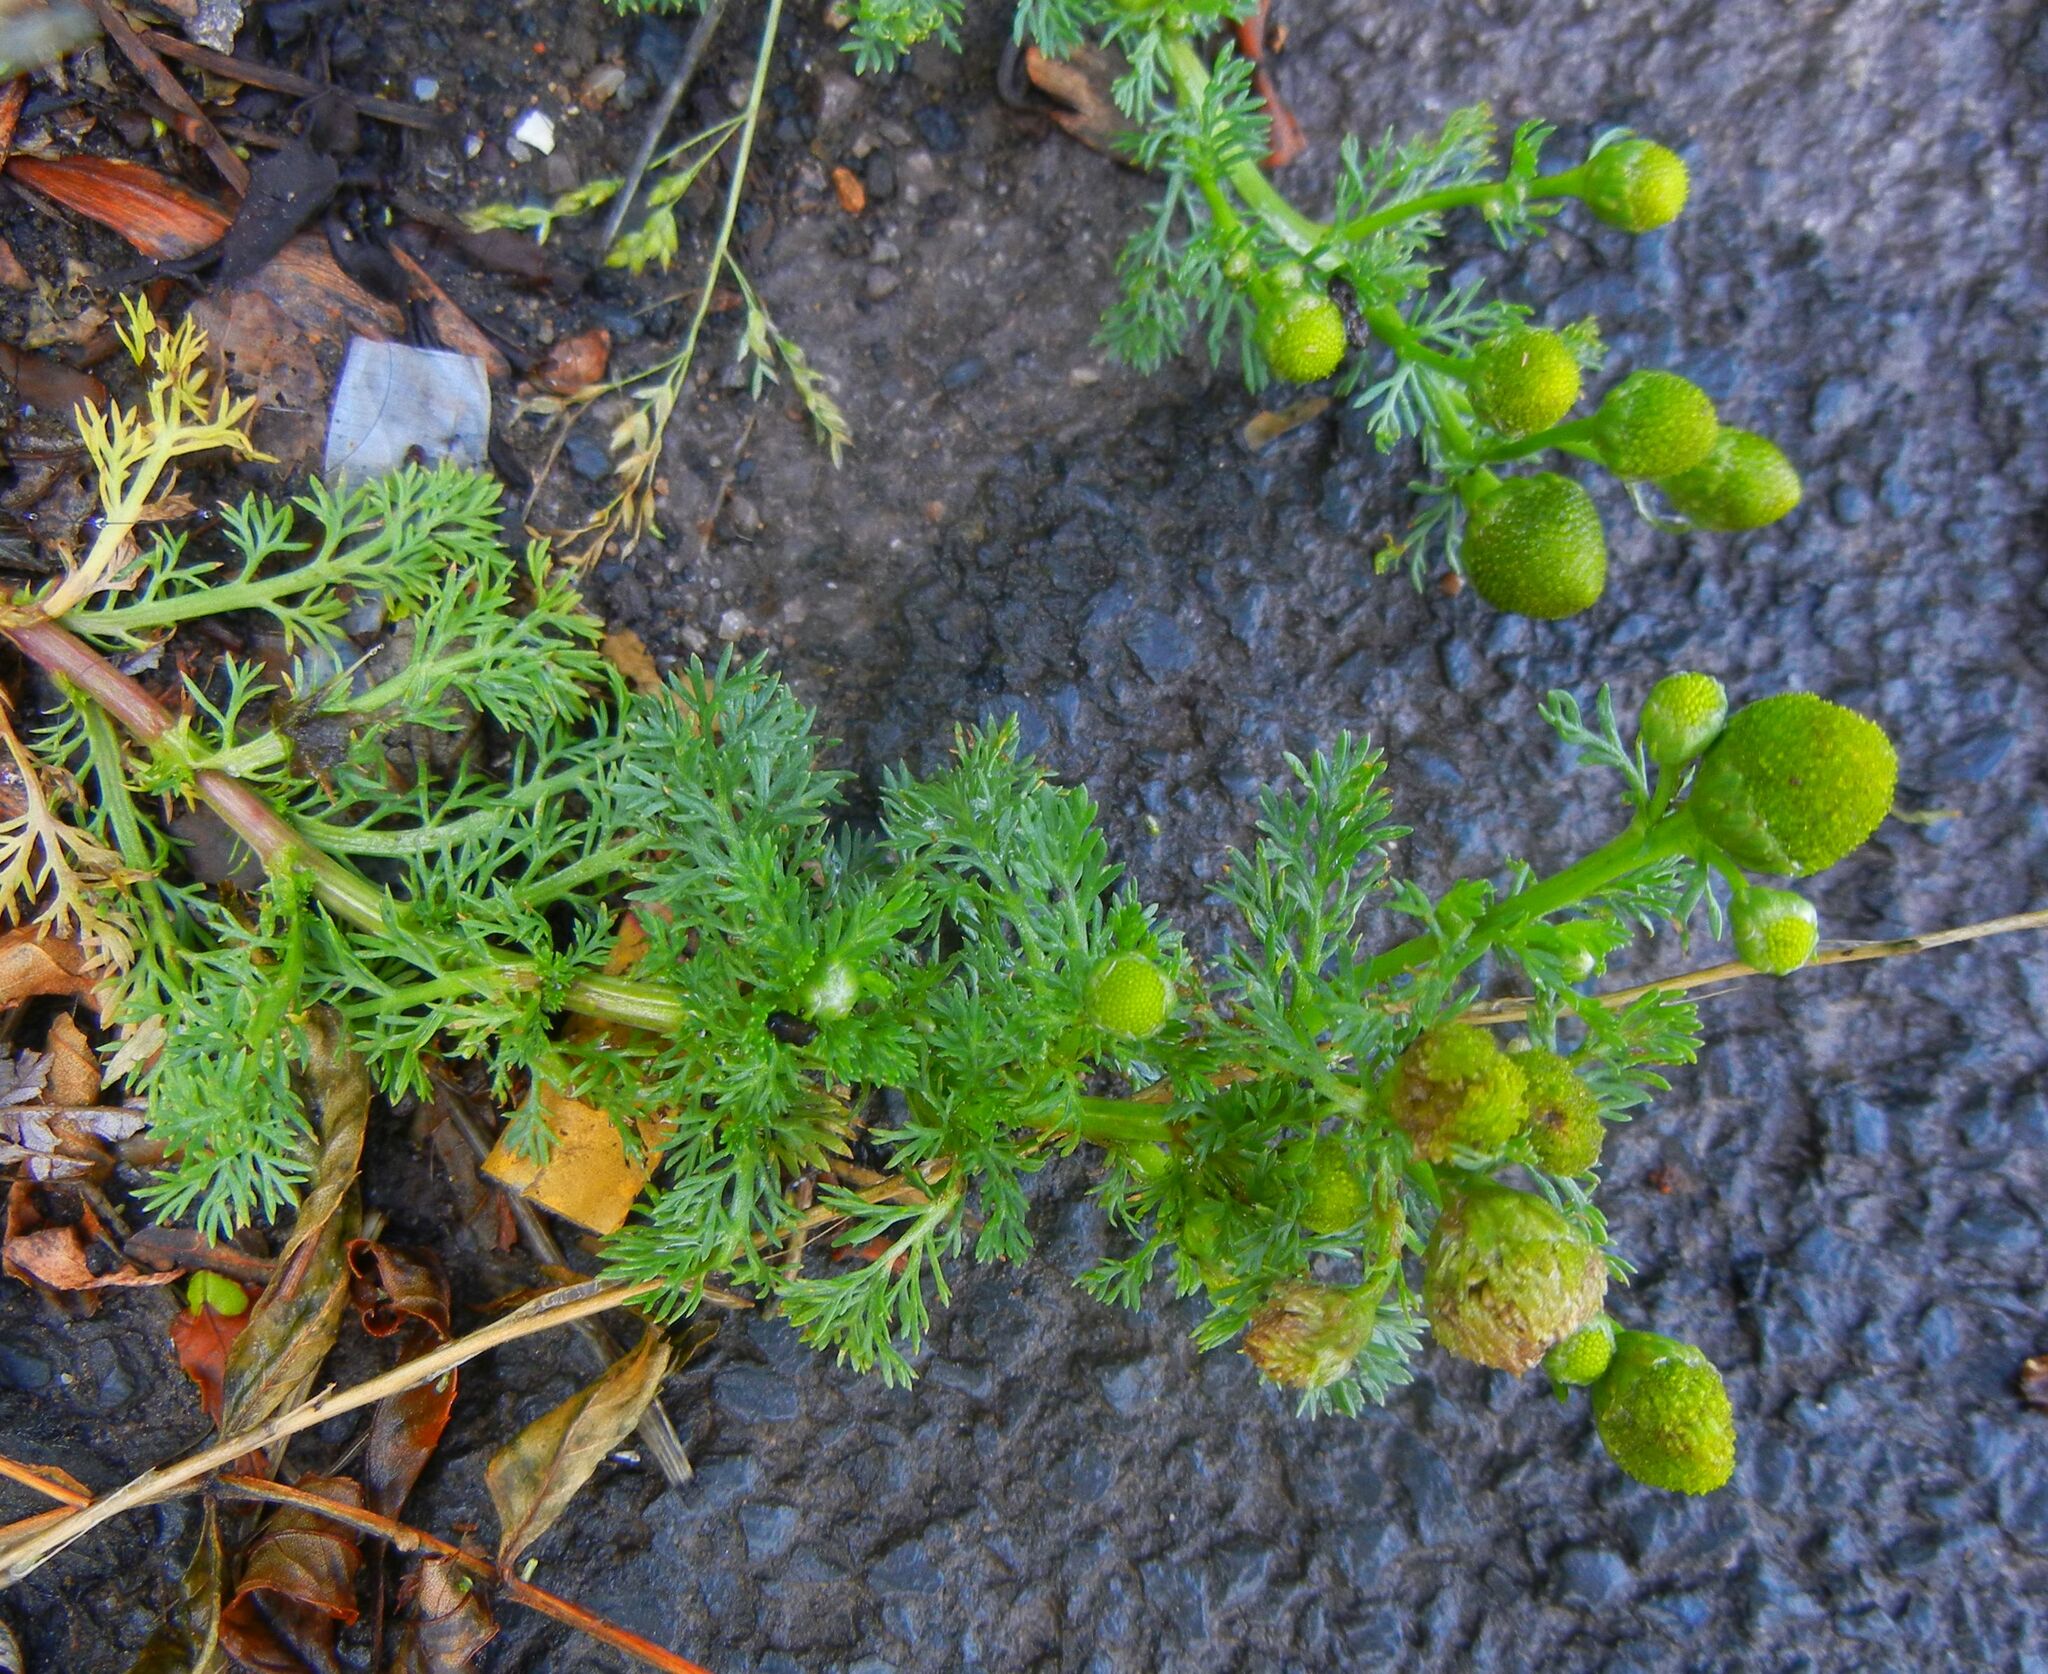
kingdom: Plantae
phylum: Tracheophyta
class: Magnoliopsida
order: Asterales
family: Asteraceae
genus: Matricaria
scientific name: Matricaria discoidea
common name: Disc mayweed
